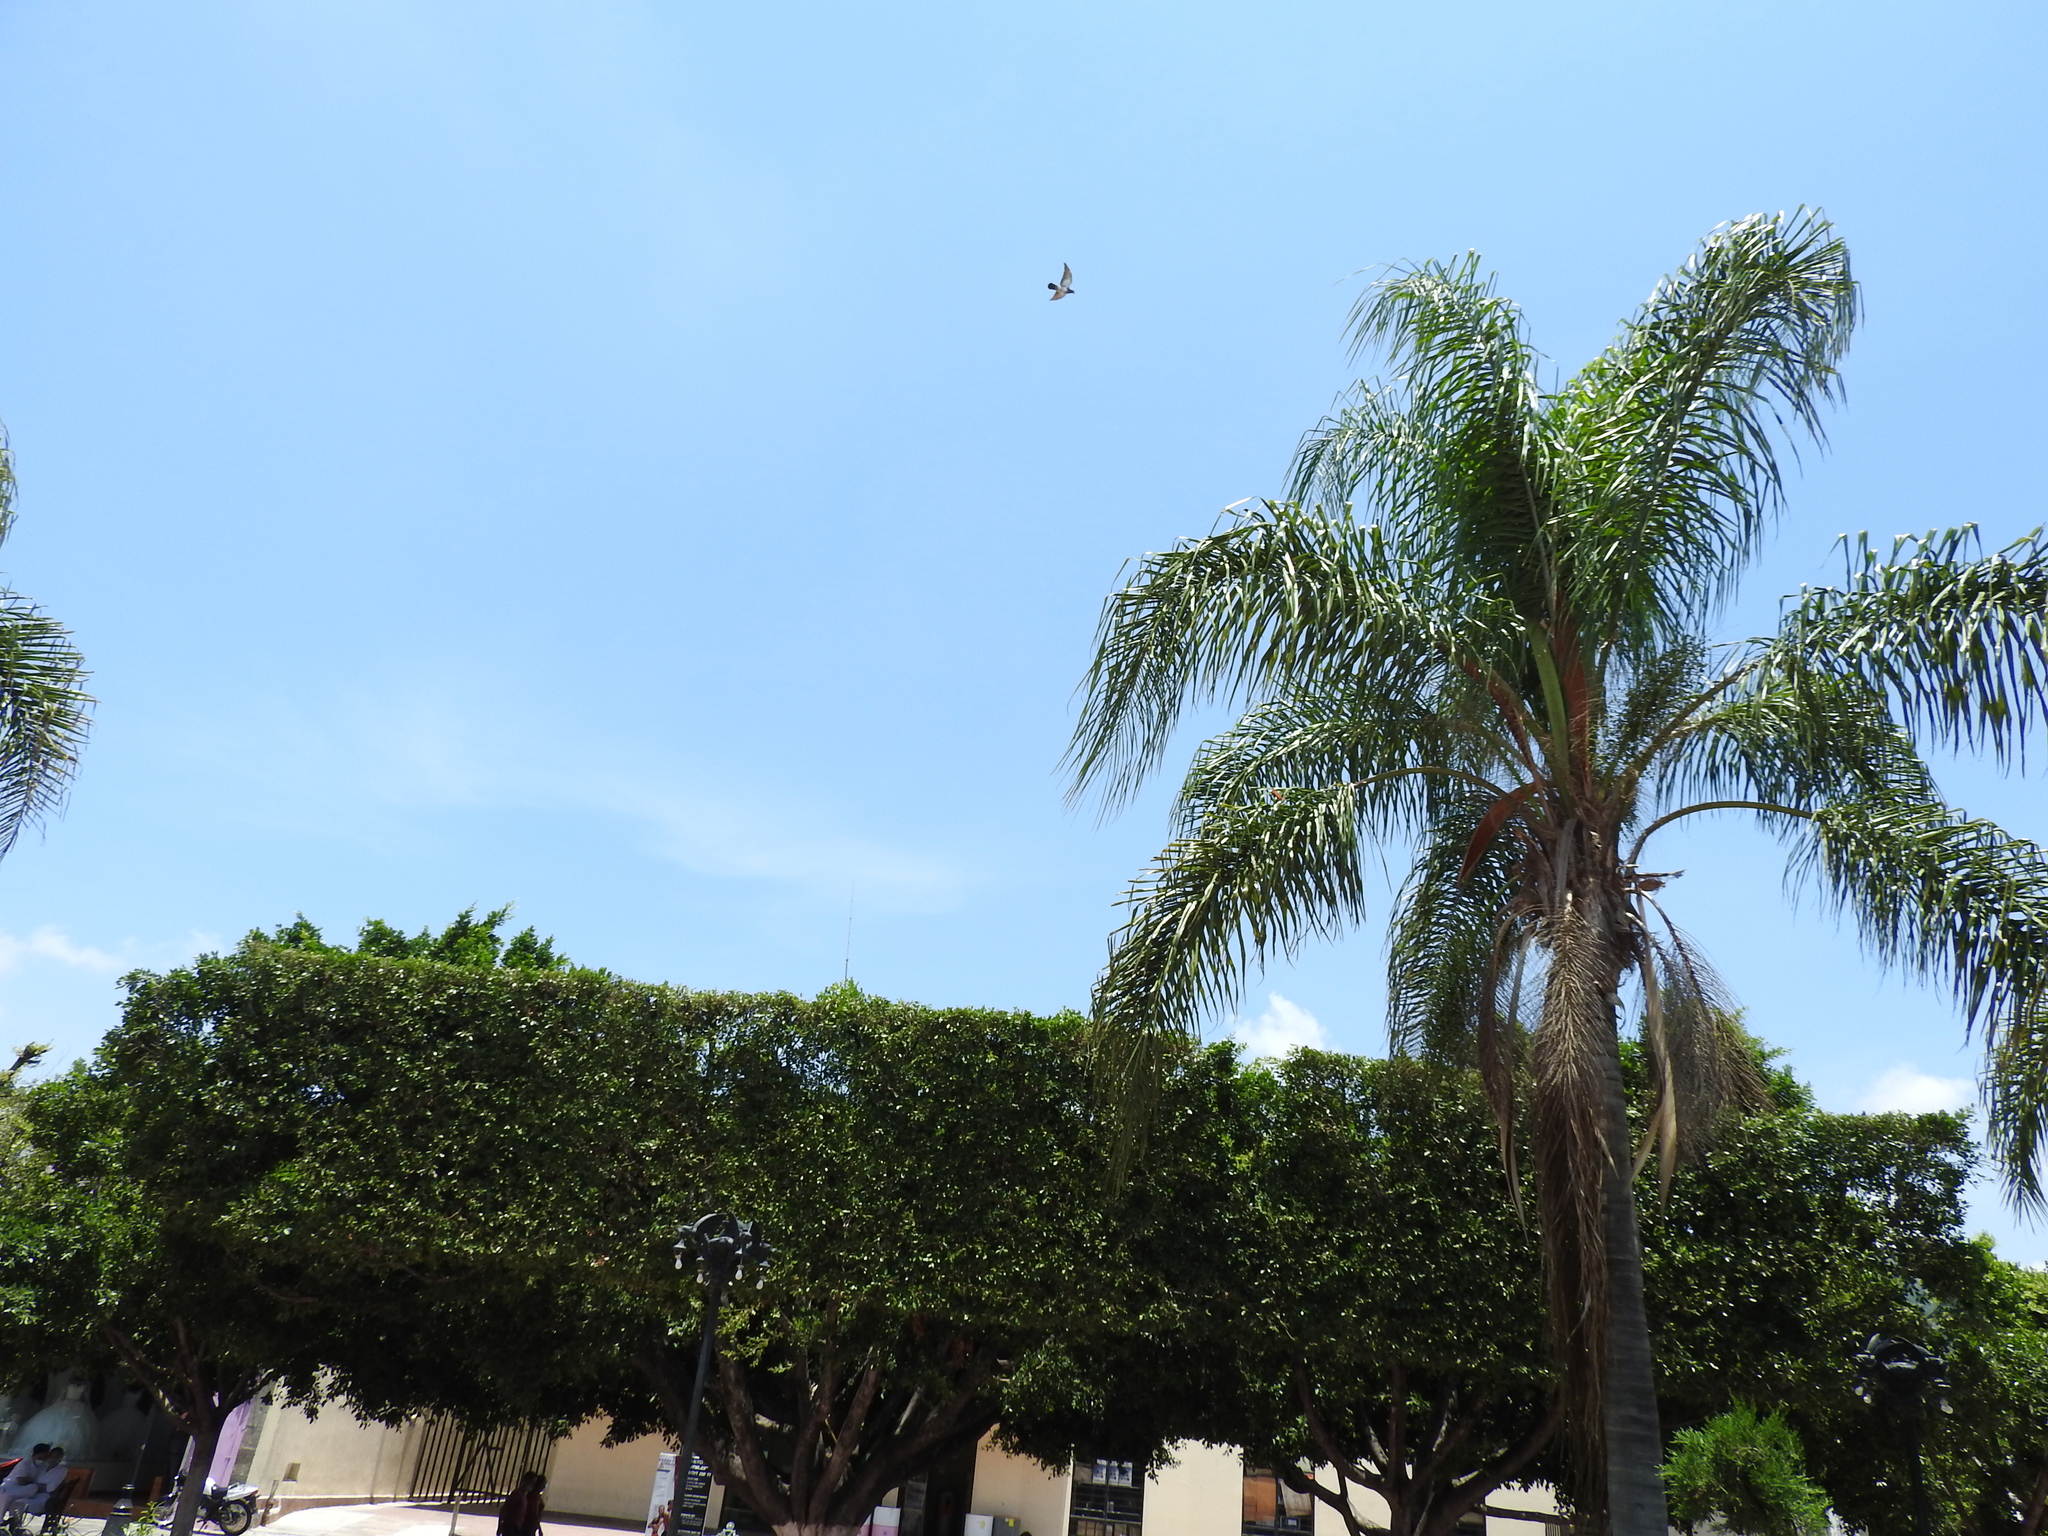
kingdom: Animalia
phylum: Chordata
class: Aves
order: Columbiformes
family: Columbidae
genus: Columba
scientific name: Columba livia
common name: Rock pigeon
